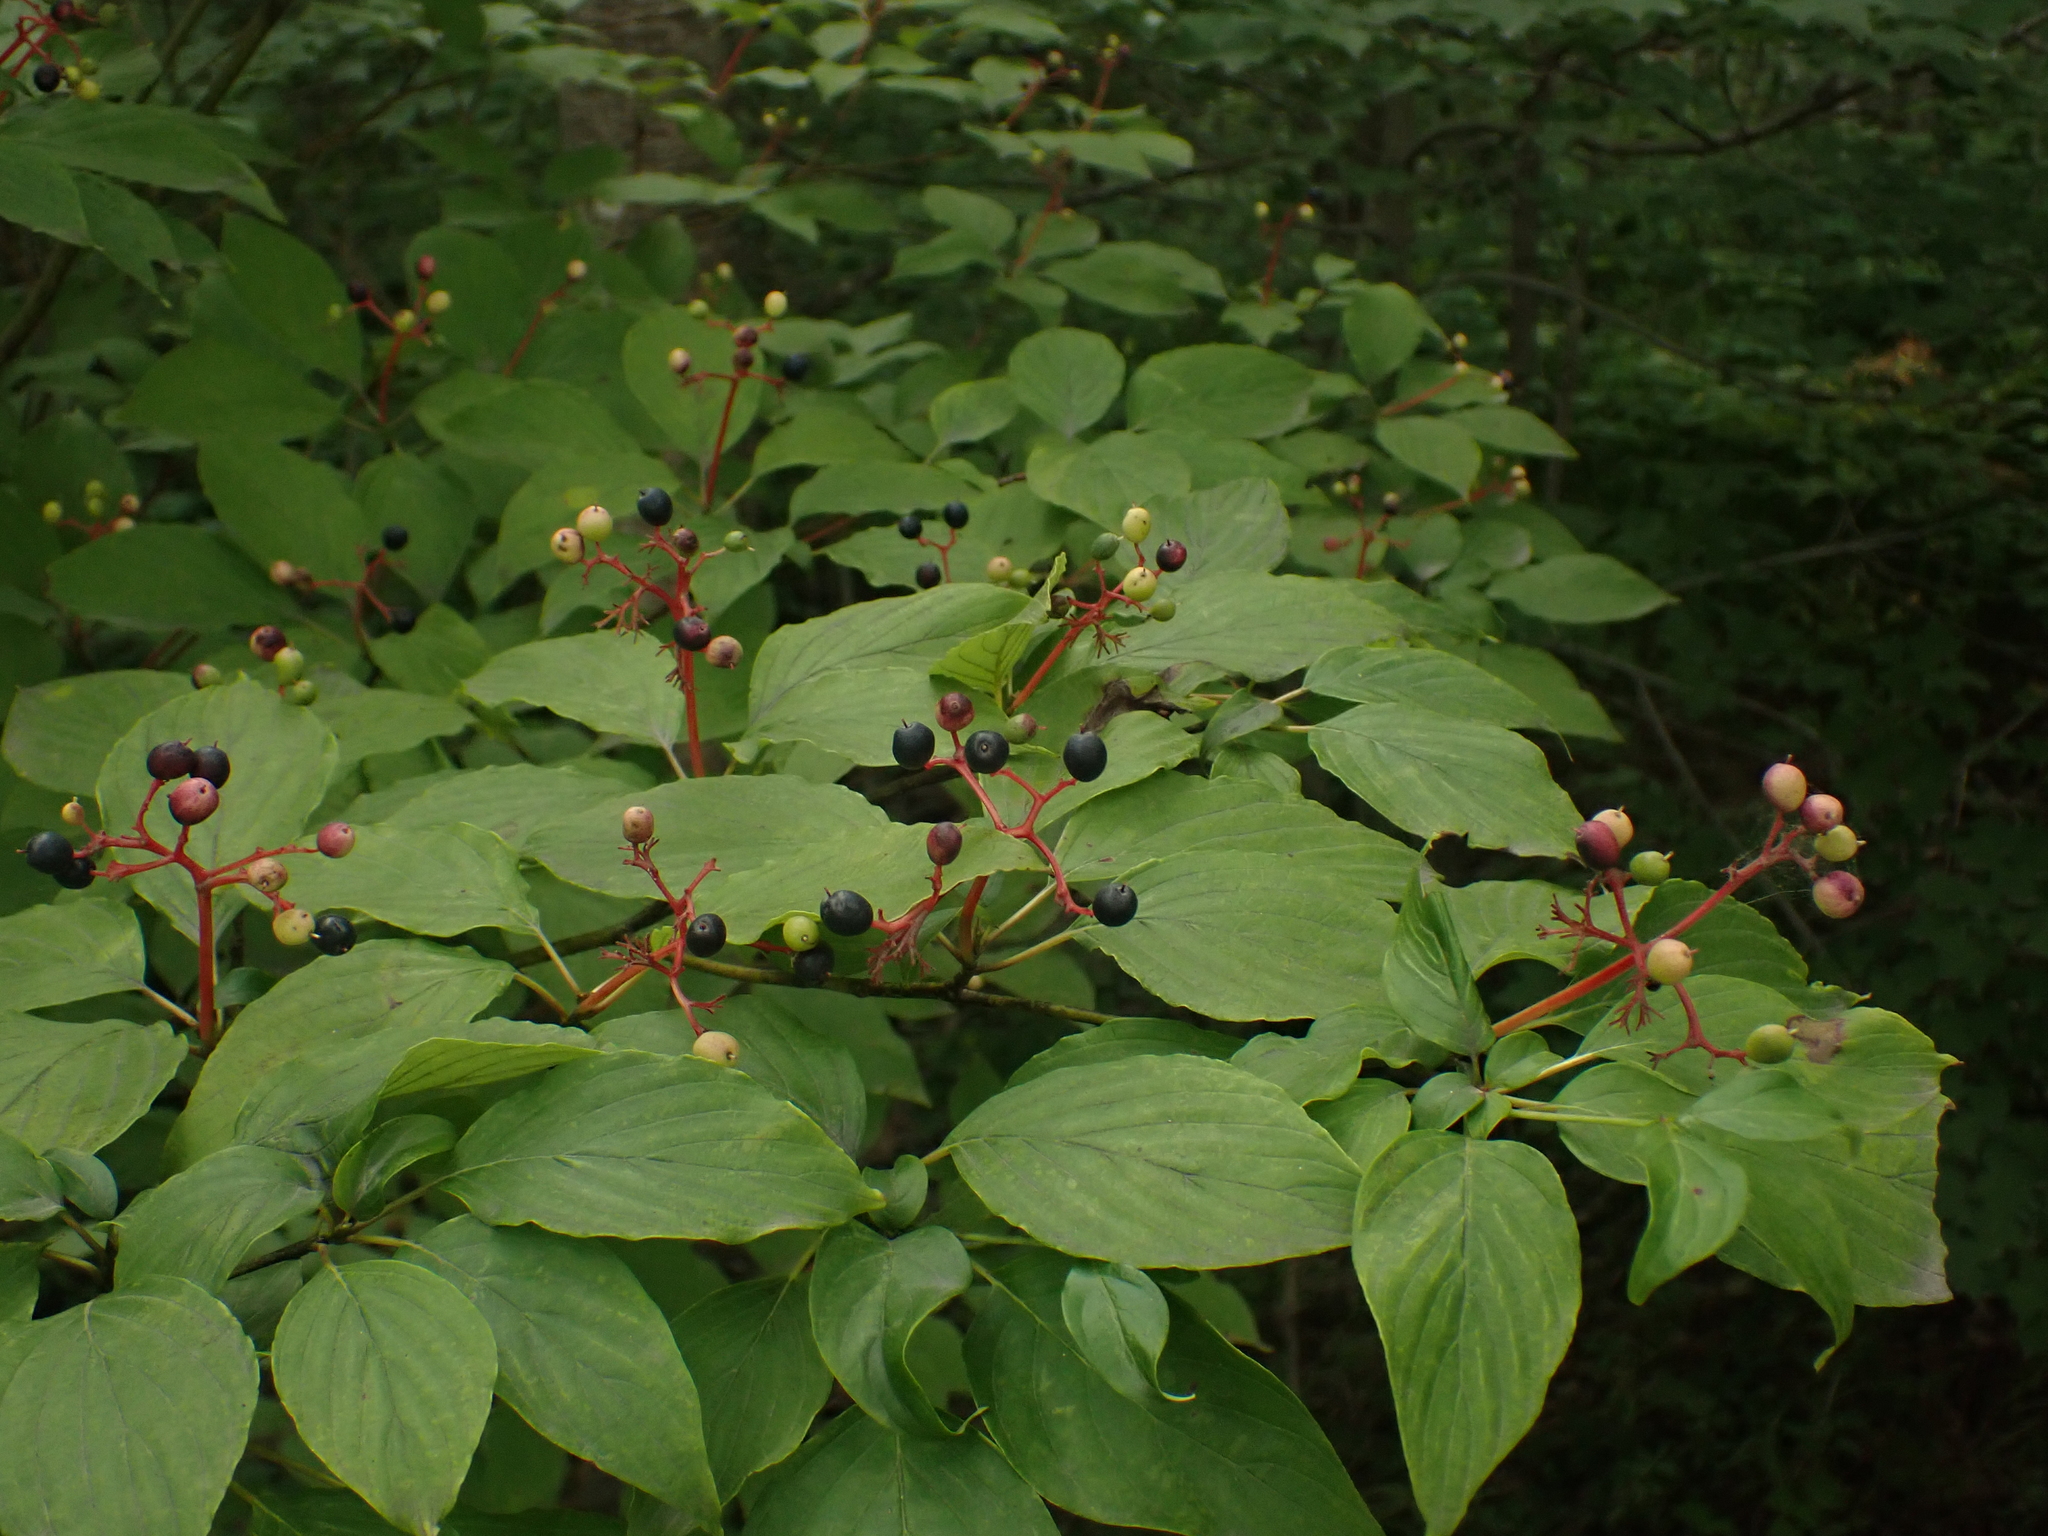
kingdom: Plantae
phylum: Tracheophyta
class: Magnoliopsida
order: Cornales
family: Cornaceae
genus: Cornus
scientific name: Cornus alternifolia
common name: Pagoda dogwood
